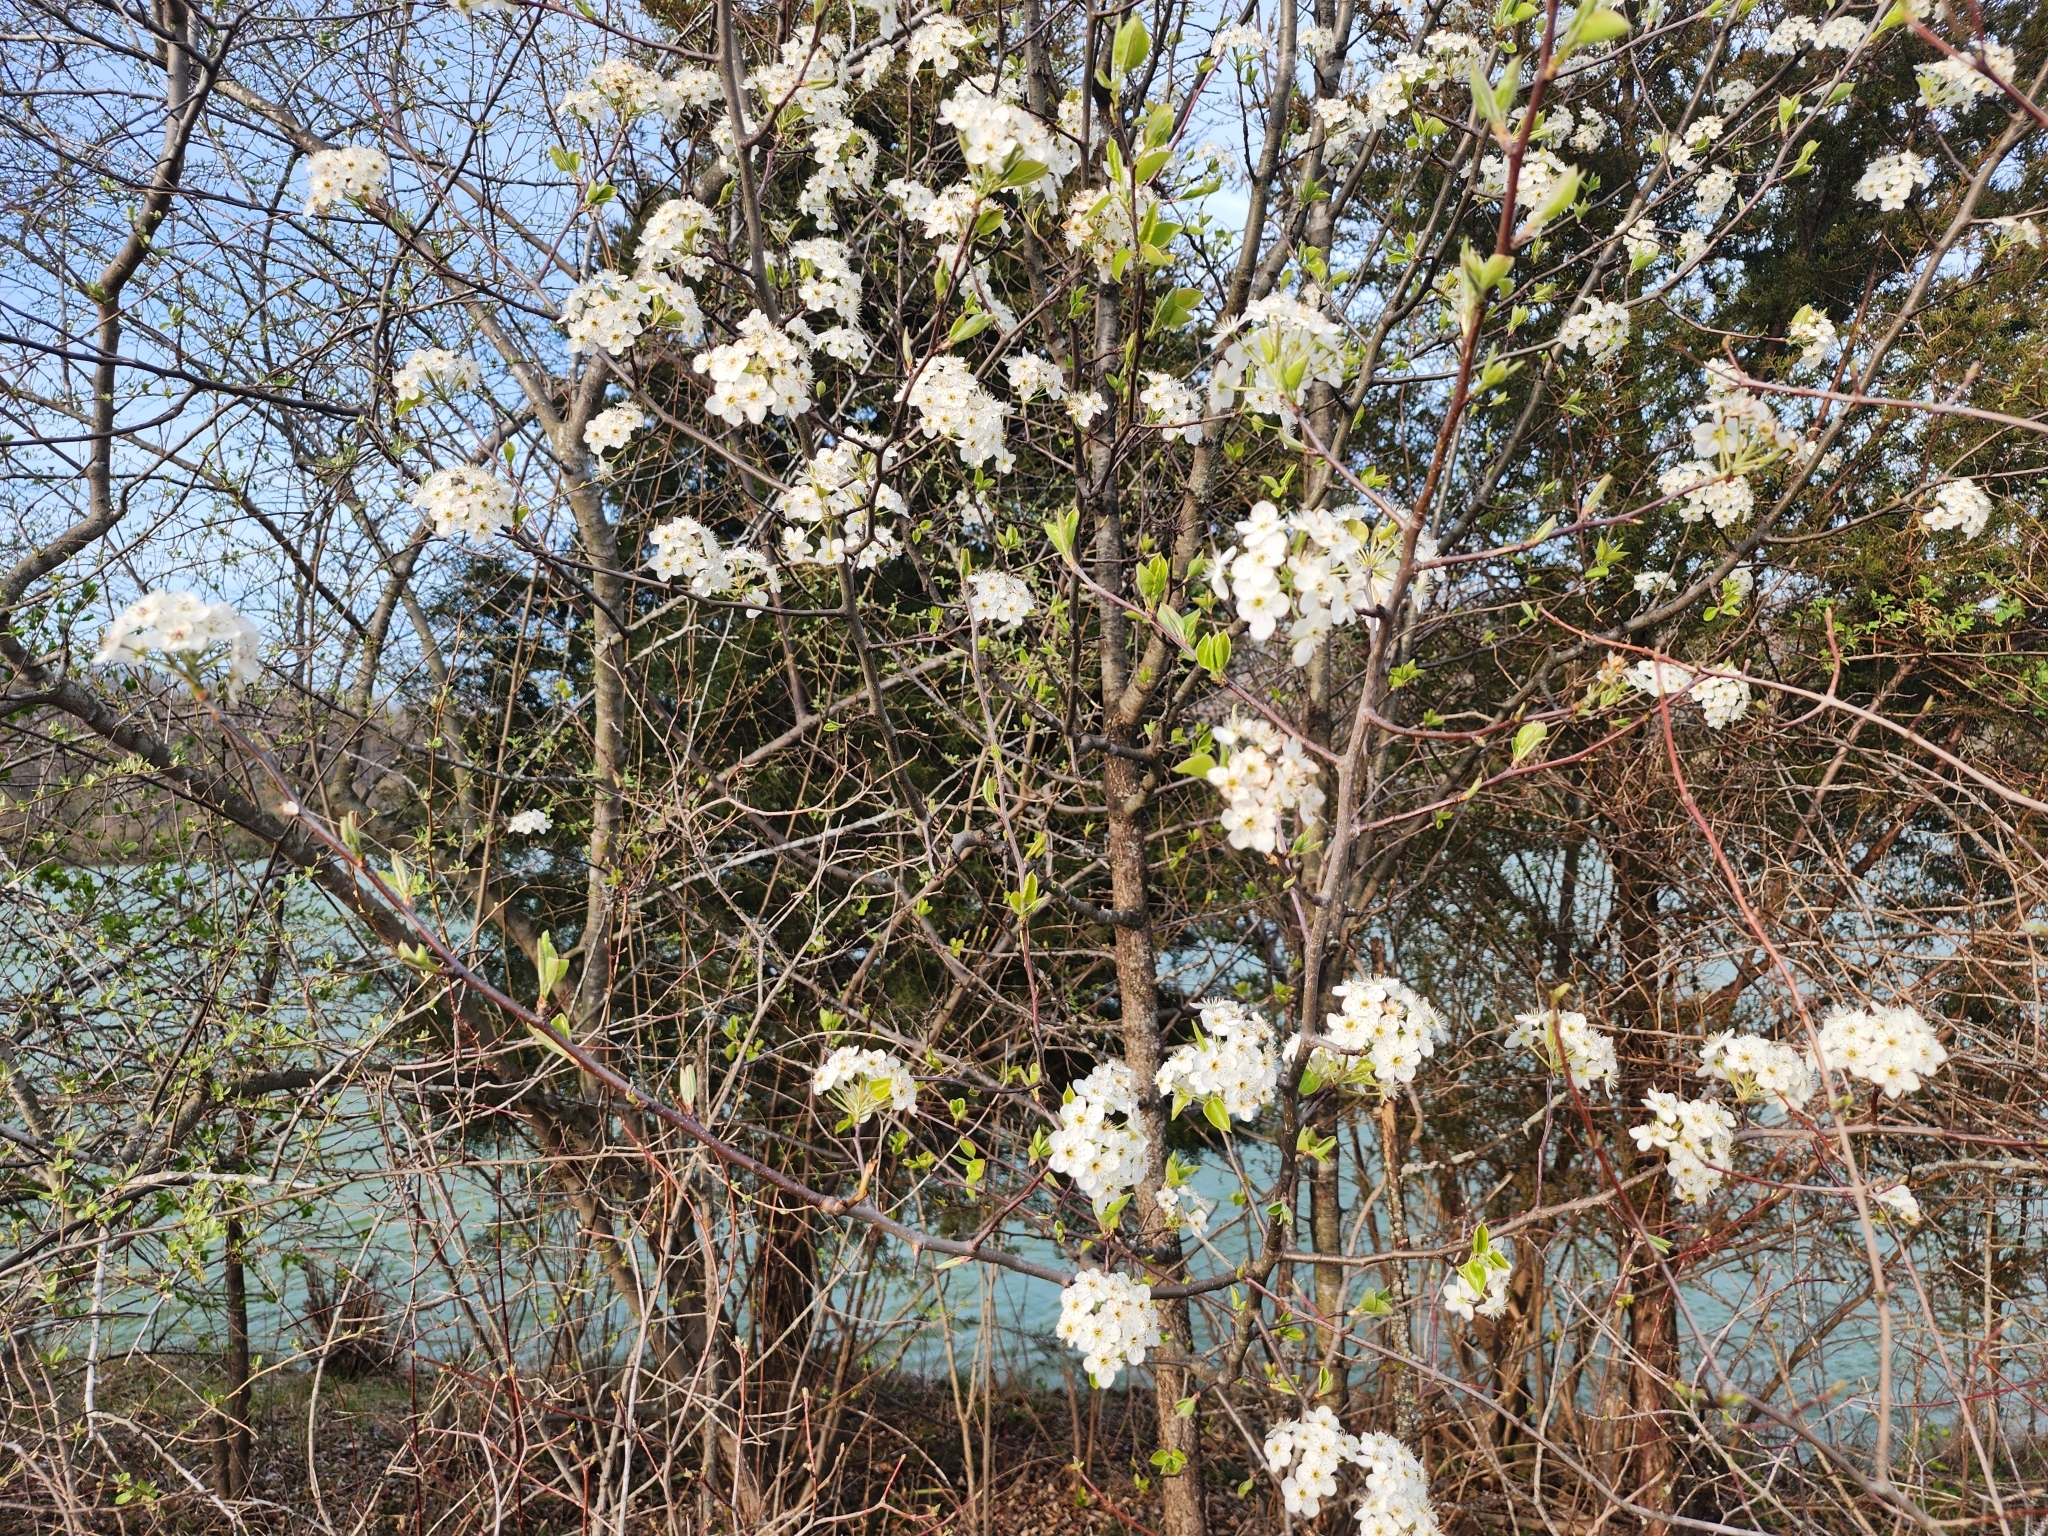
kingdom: Plantae
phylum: Tracheophyta
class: Magnoliopsida
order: Rosales
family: Rosaceae
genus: Pyrus
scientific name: Pyrus calleryana
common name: Callery pear
